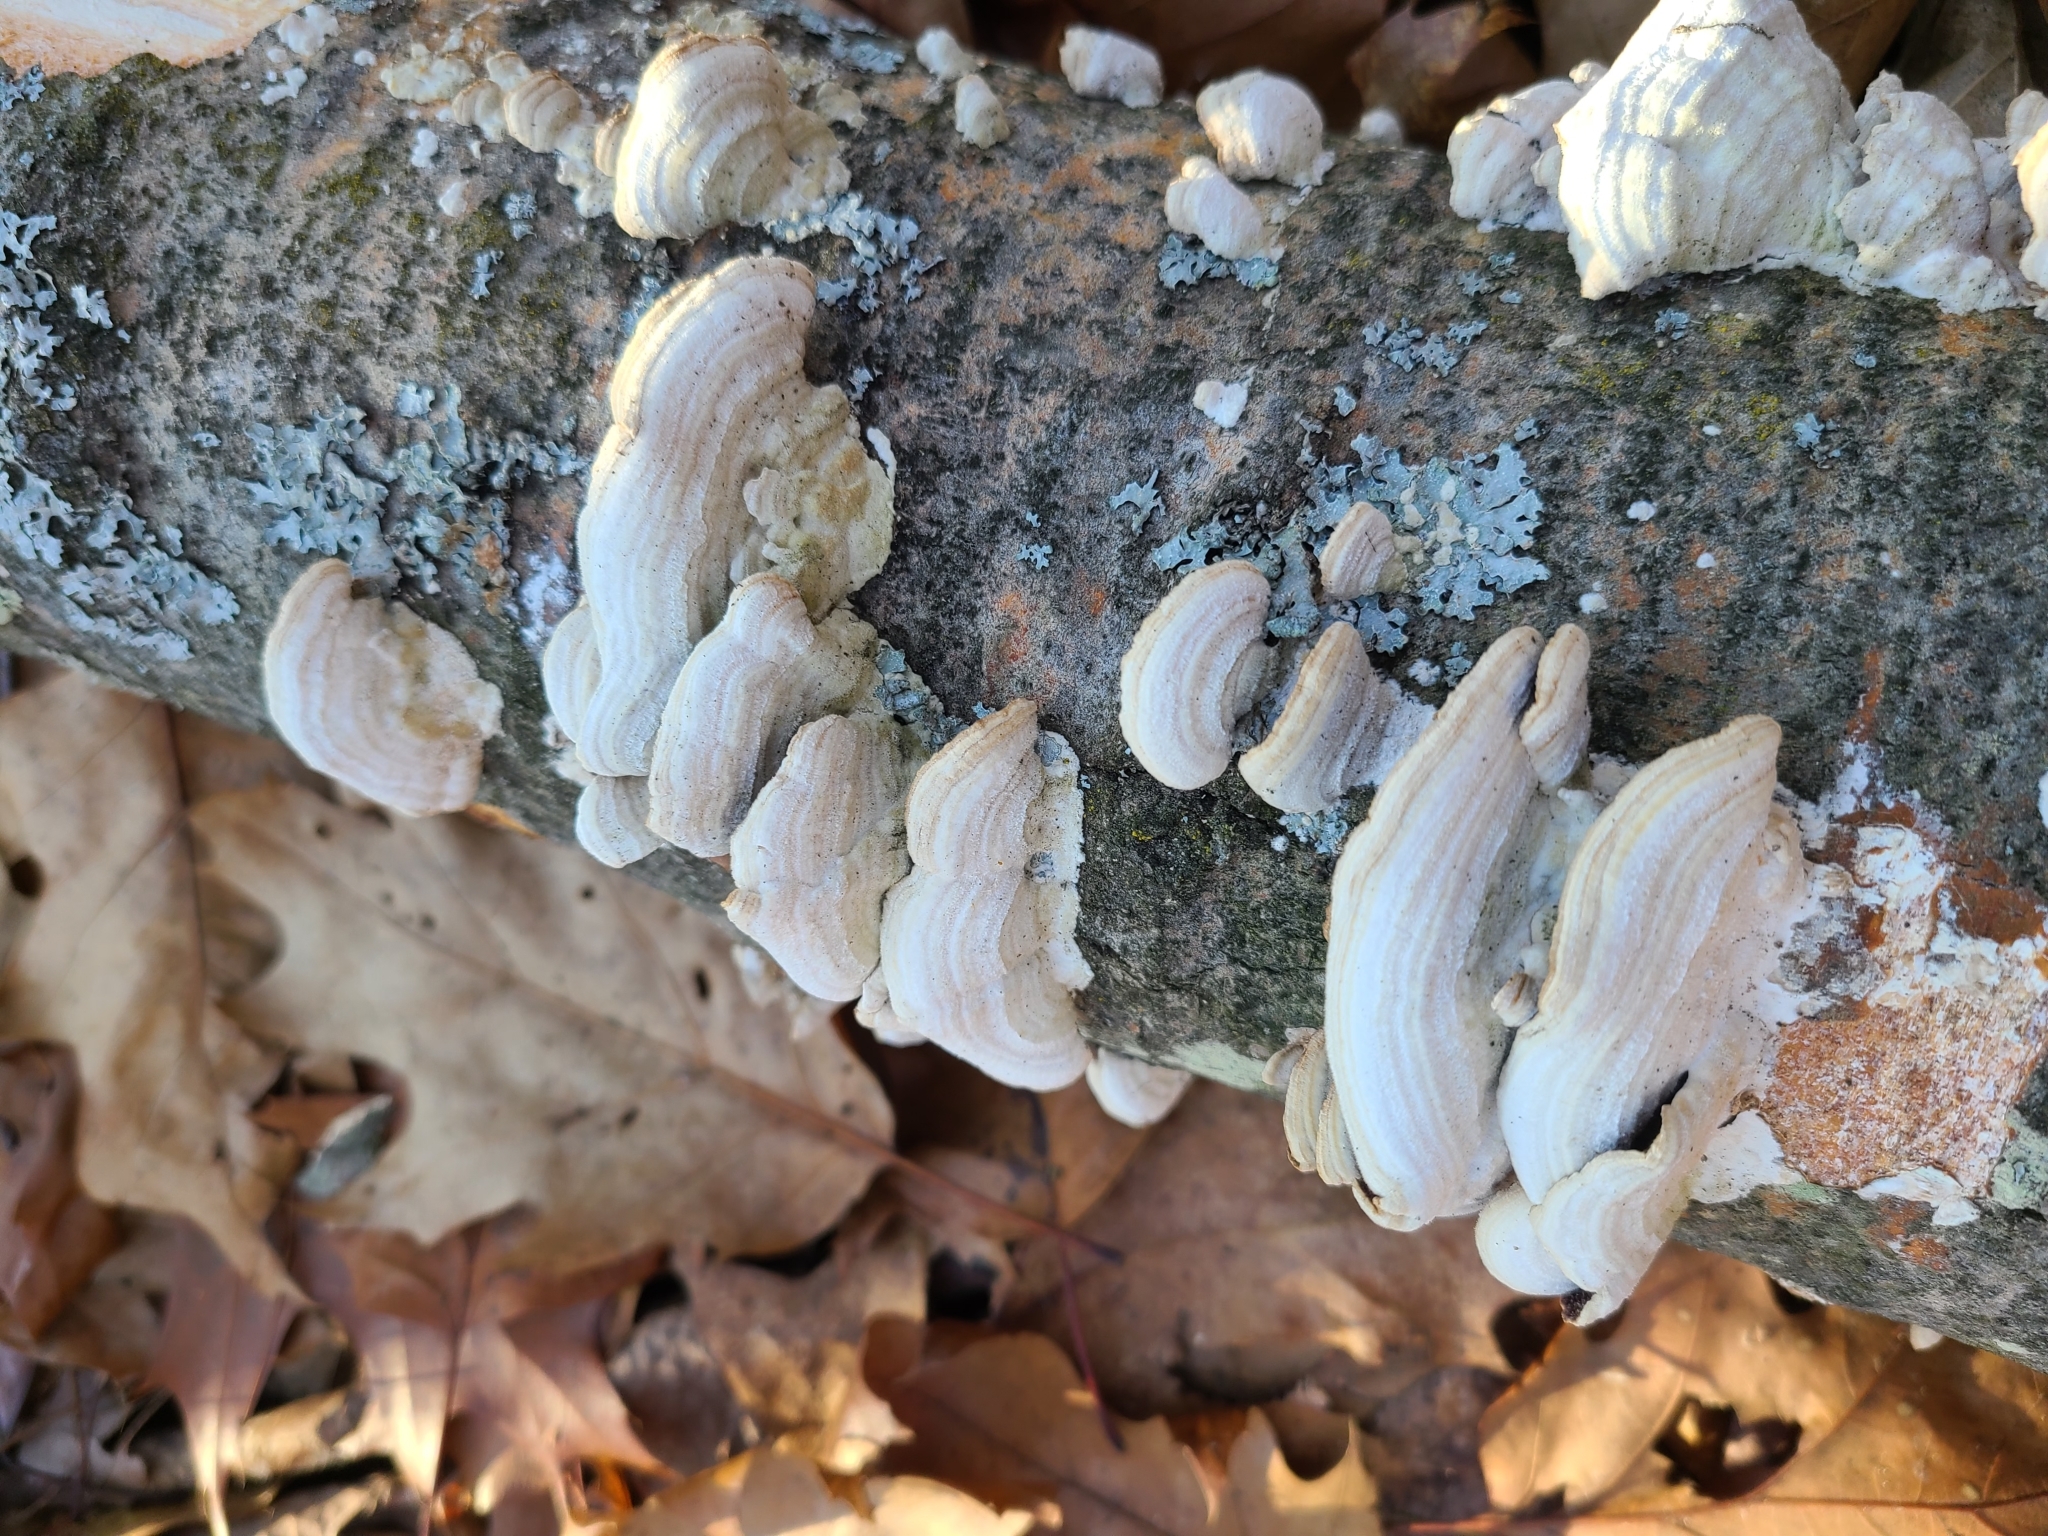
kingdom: Fungi
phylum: Basidiomycota
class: Agaricomycetes
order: Hymenochaetales
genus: Trichaptum
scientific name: Trichaptum biforme
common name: Violet-toothed polypore
